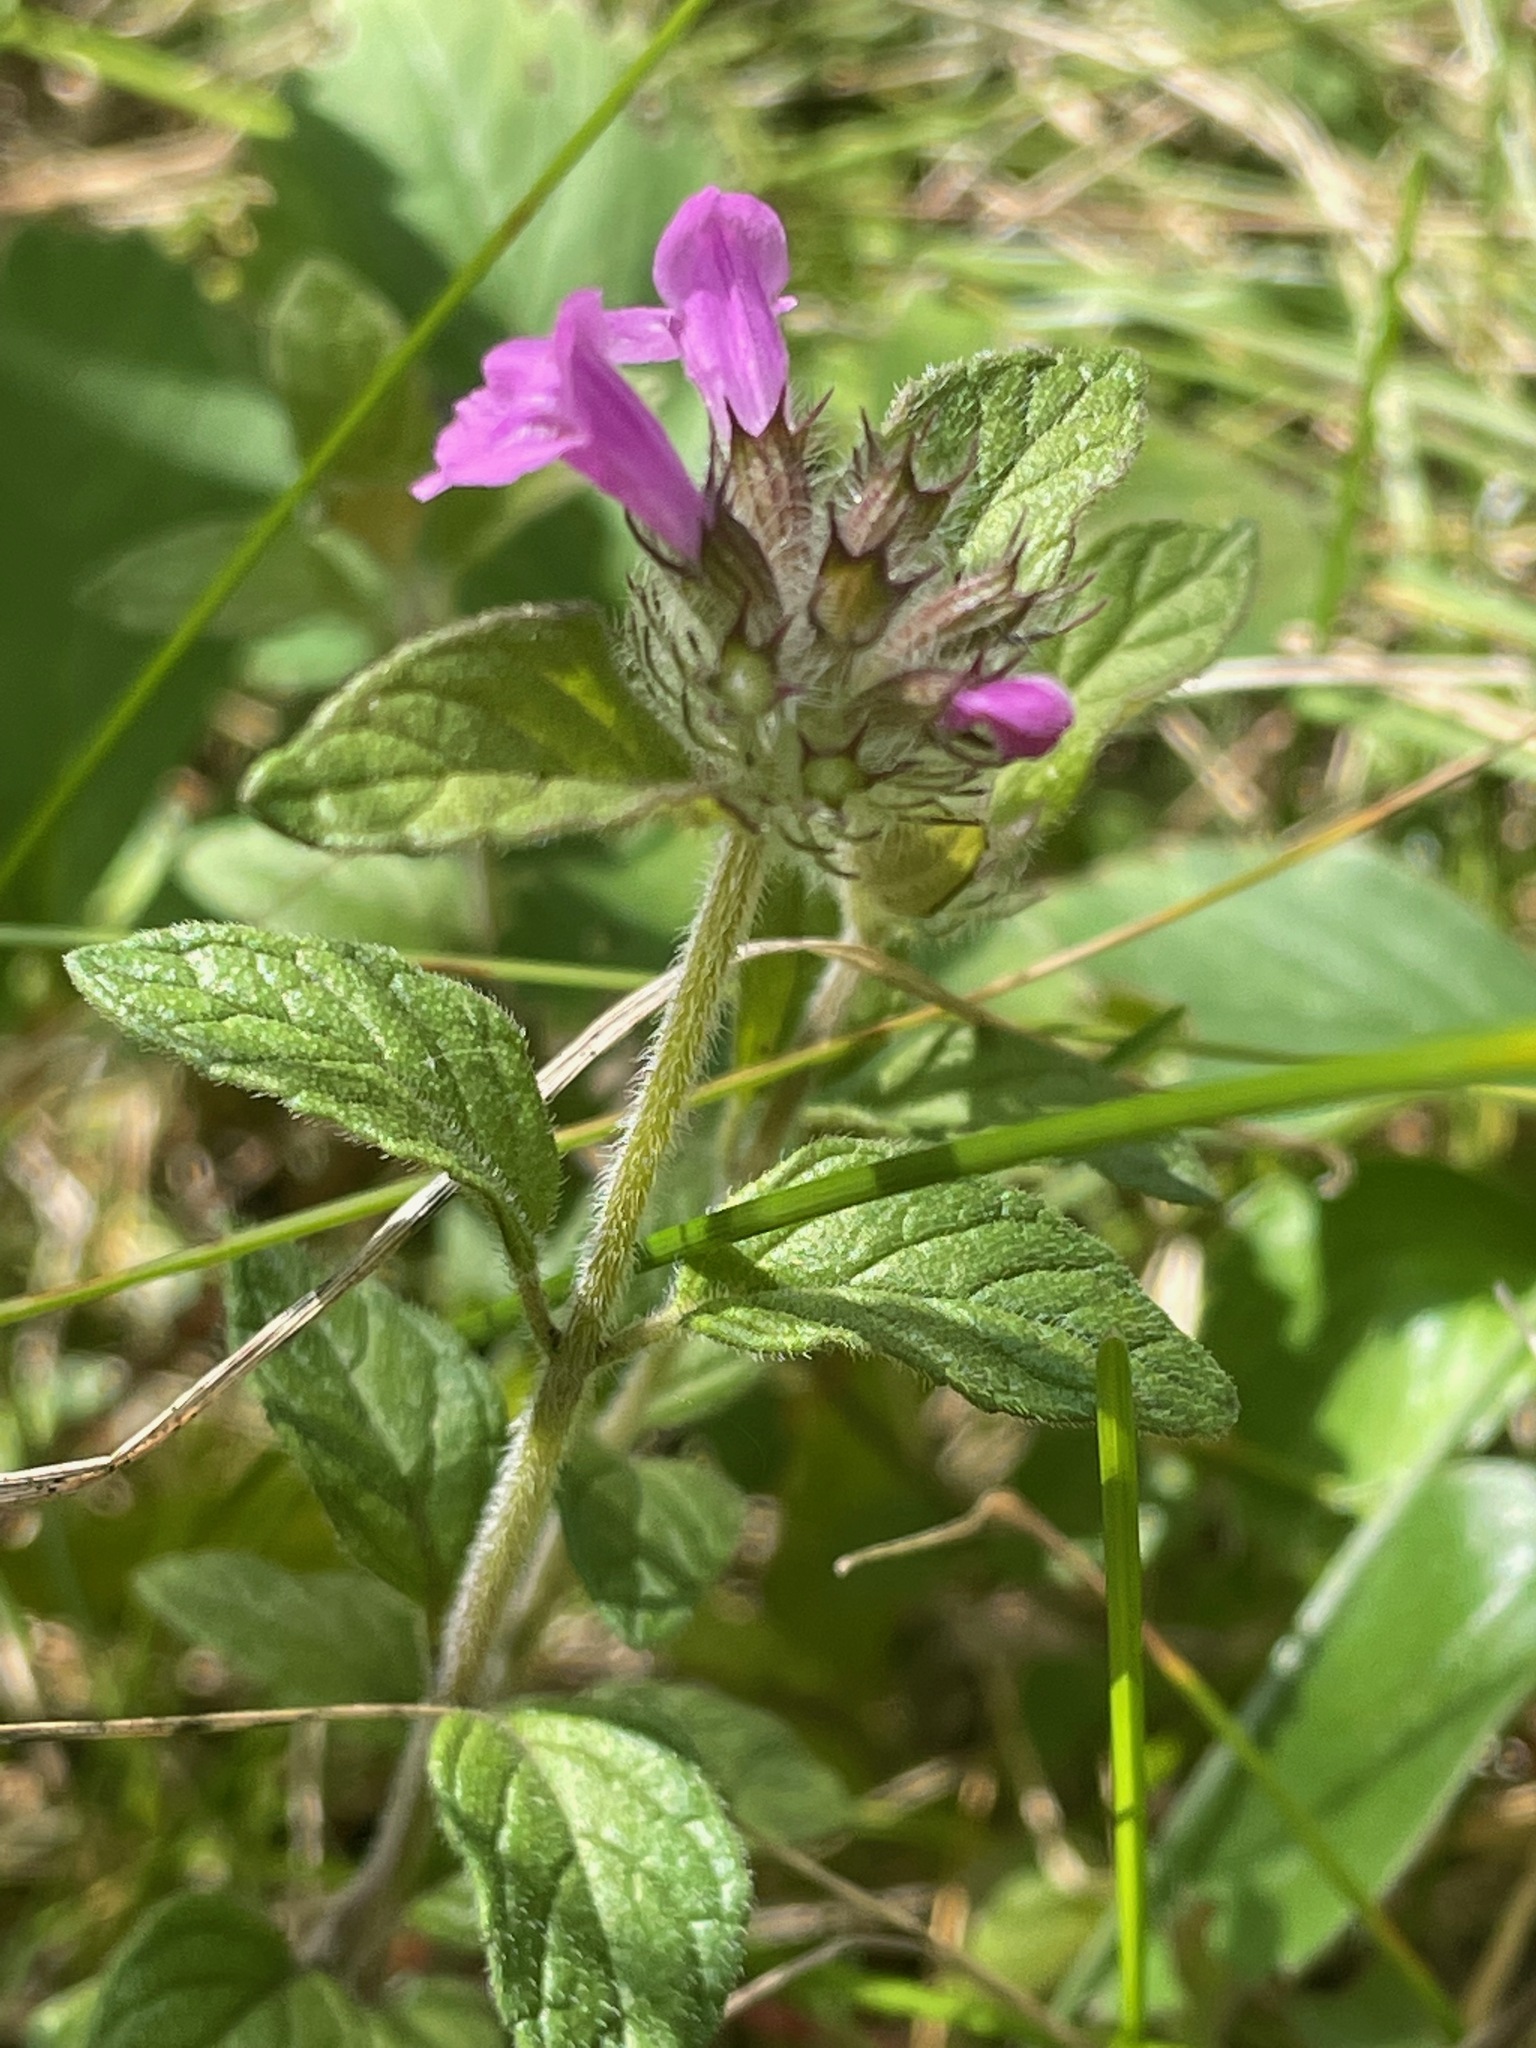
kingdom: Plantae
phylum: Tracheophyta
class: Magnoliopsida
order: Lamiales
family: Lamiaceae
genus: Clinopodium
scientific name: Clinopodium vulgare
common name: Wild basil
